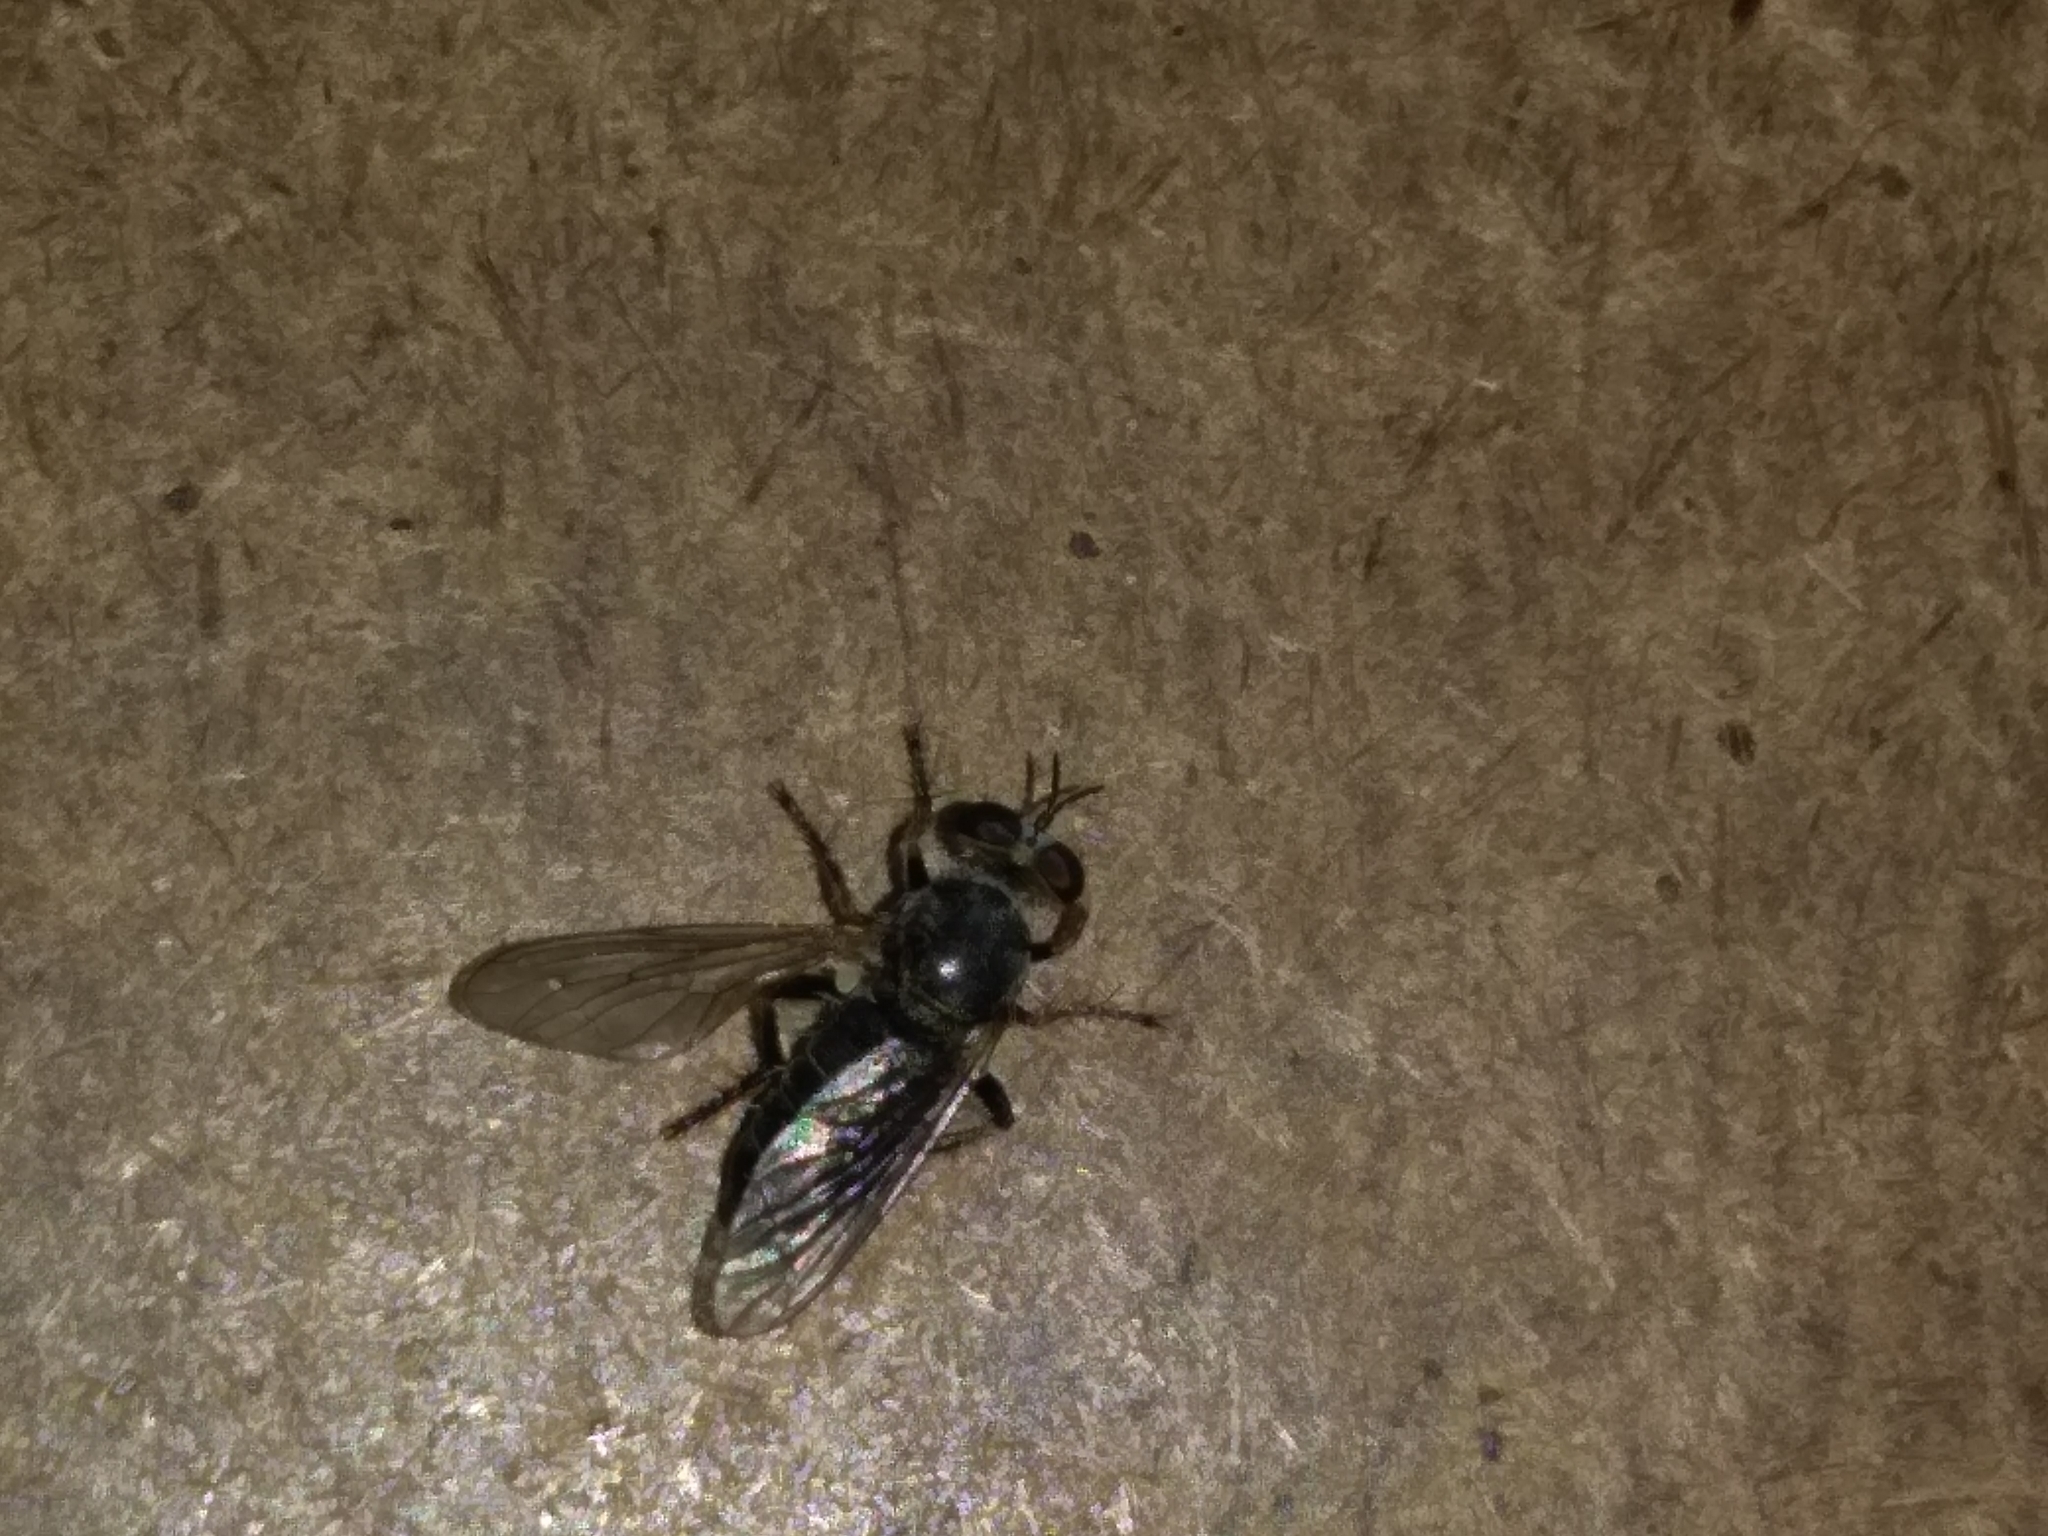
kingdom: Animalia
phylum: Arthropoda
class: Insecta
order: Diptera
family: Asilidae
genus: Atomosia
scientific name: Atomosia puella
